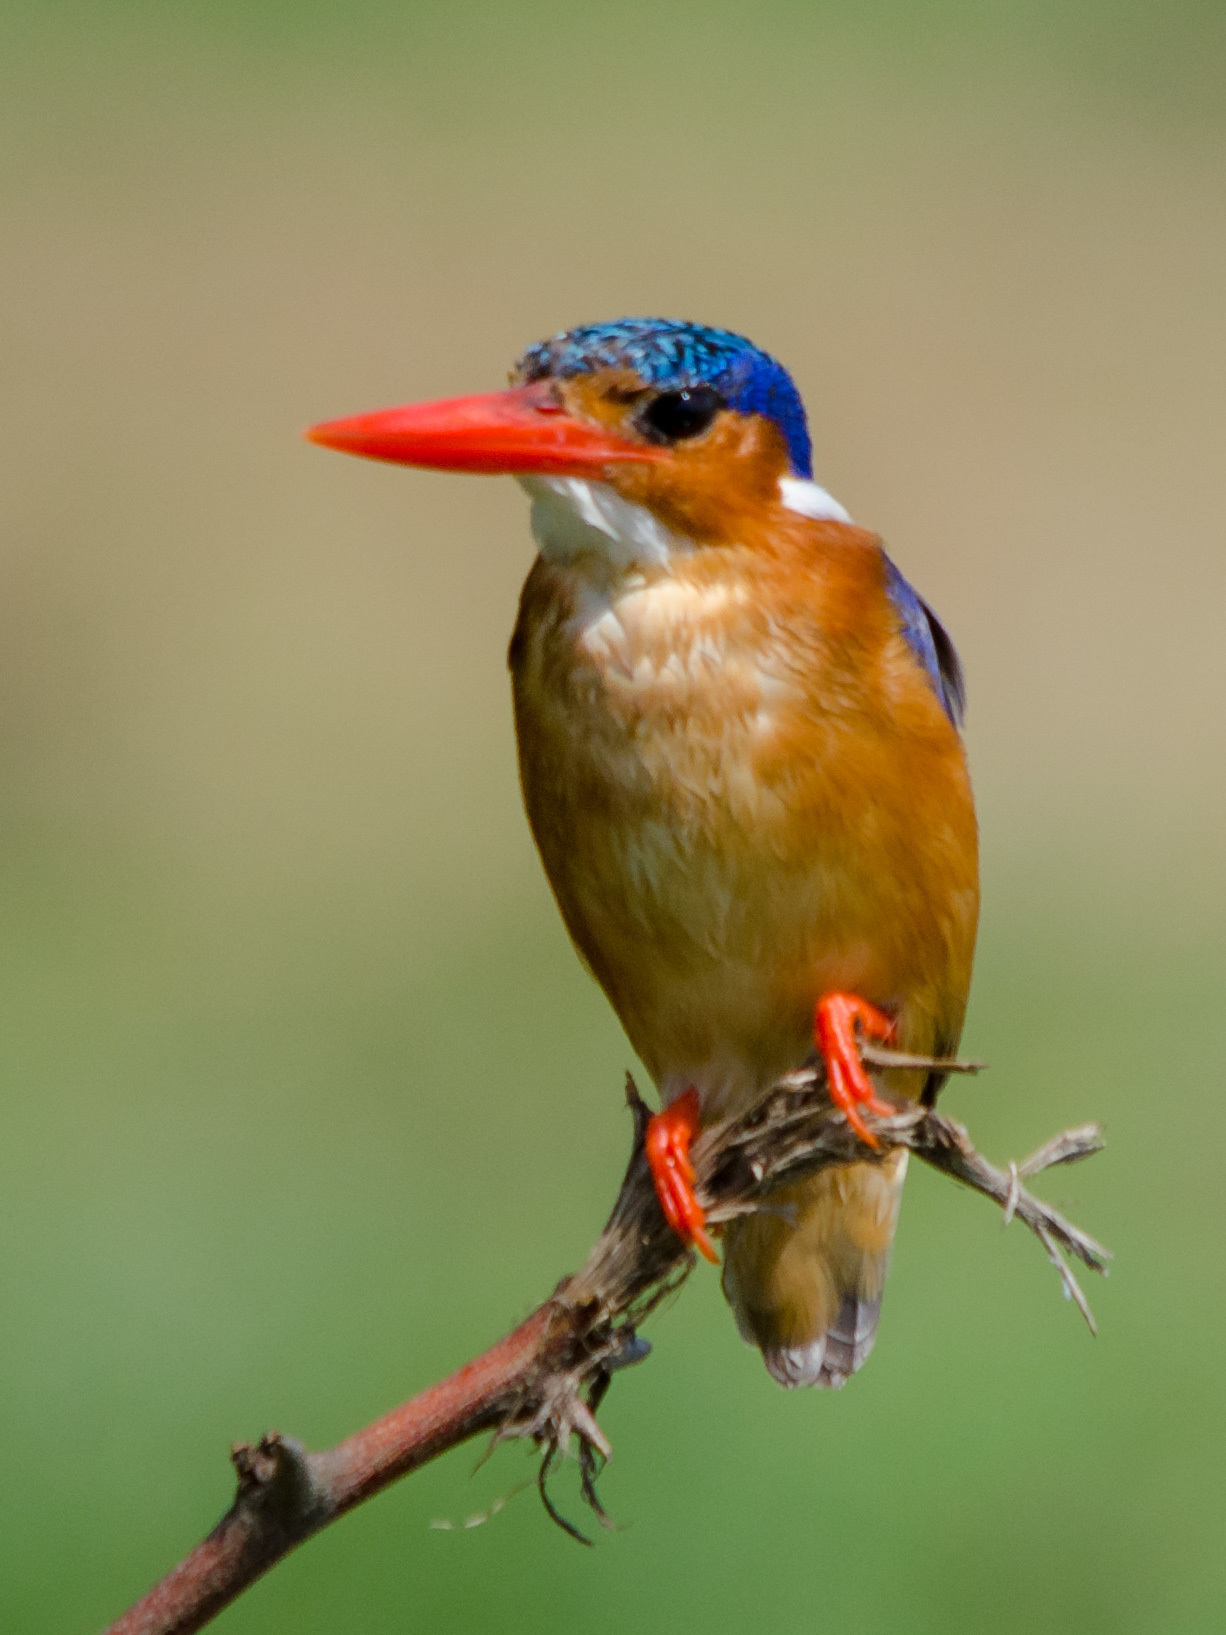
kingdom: Animalia
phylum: Chordata
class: Aves
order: Coraciiformes
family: Alcedinidae
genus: Corythornis
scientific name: Corythornis cristatus
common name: Malachite kingfisher
